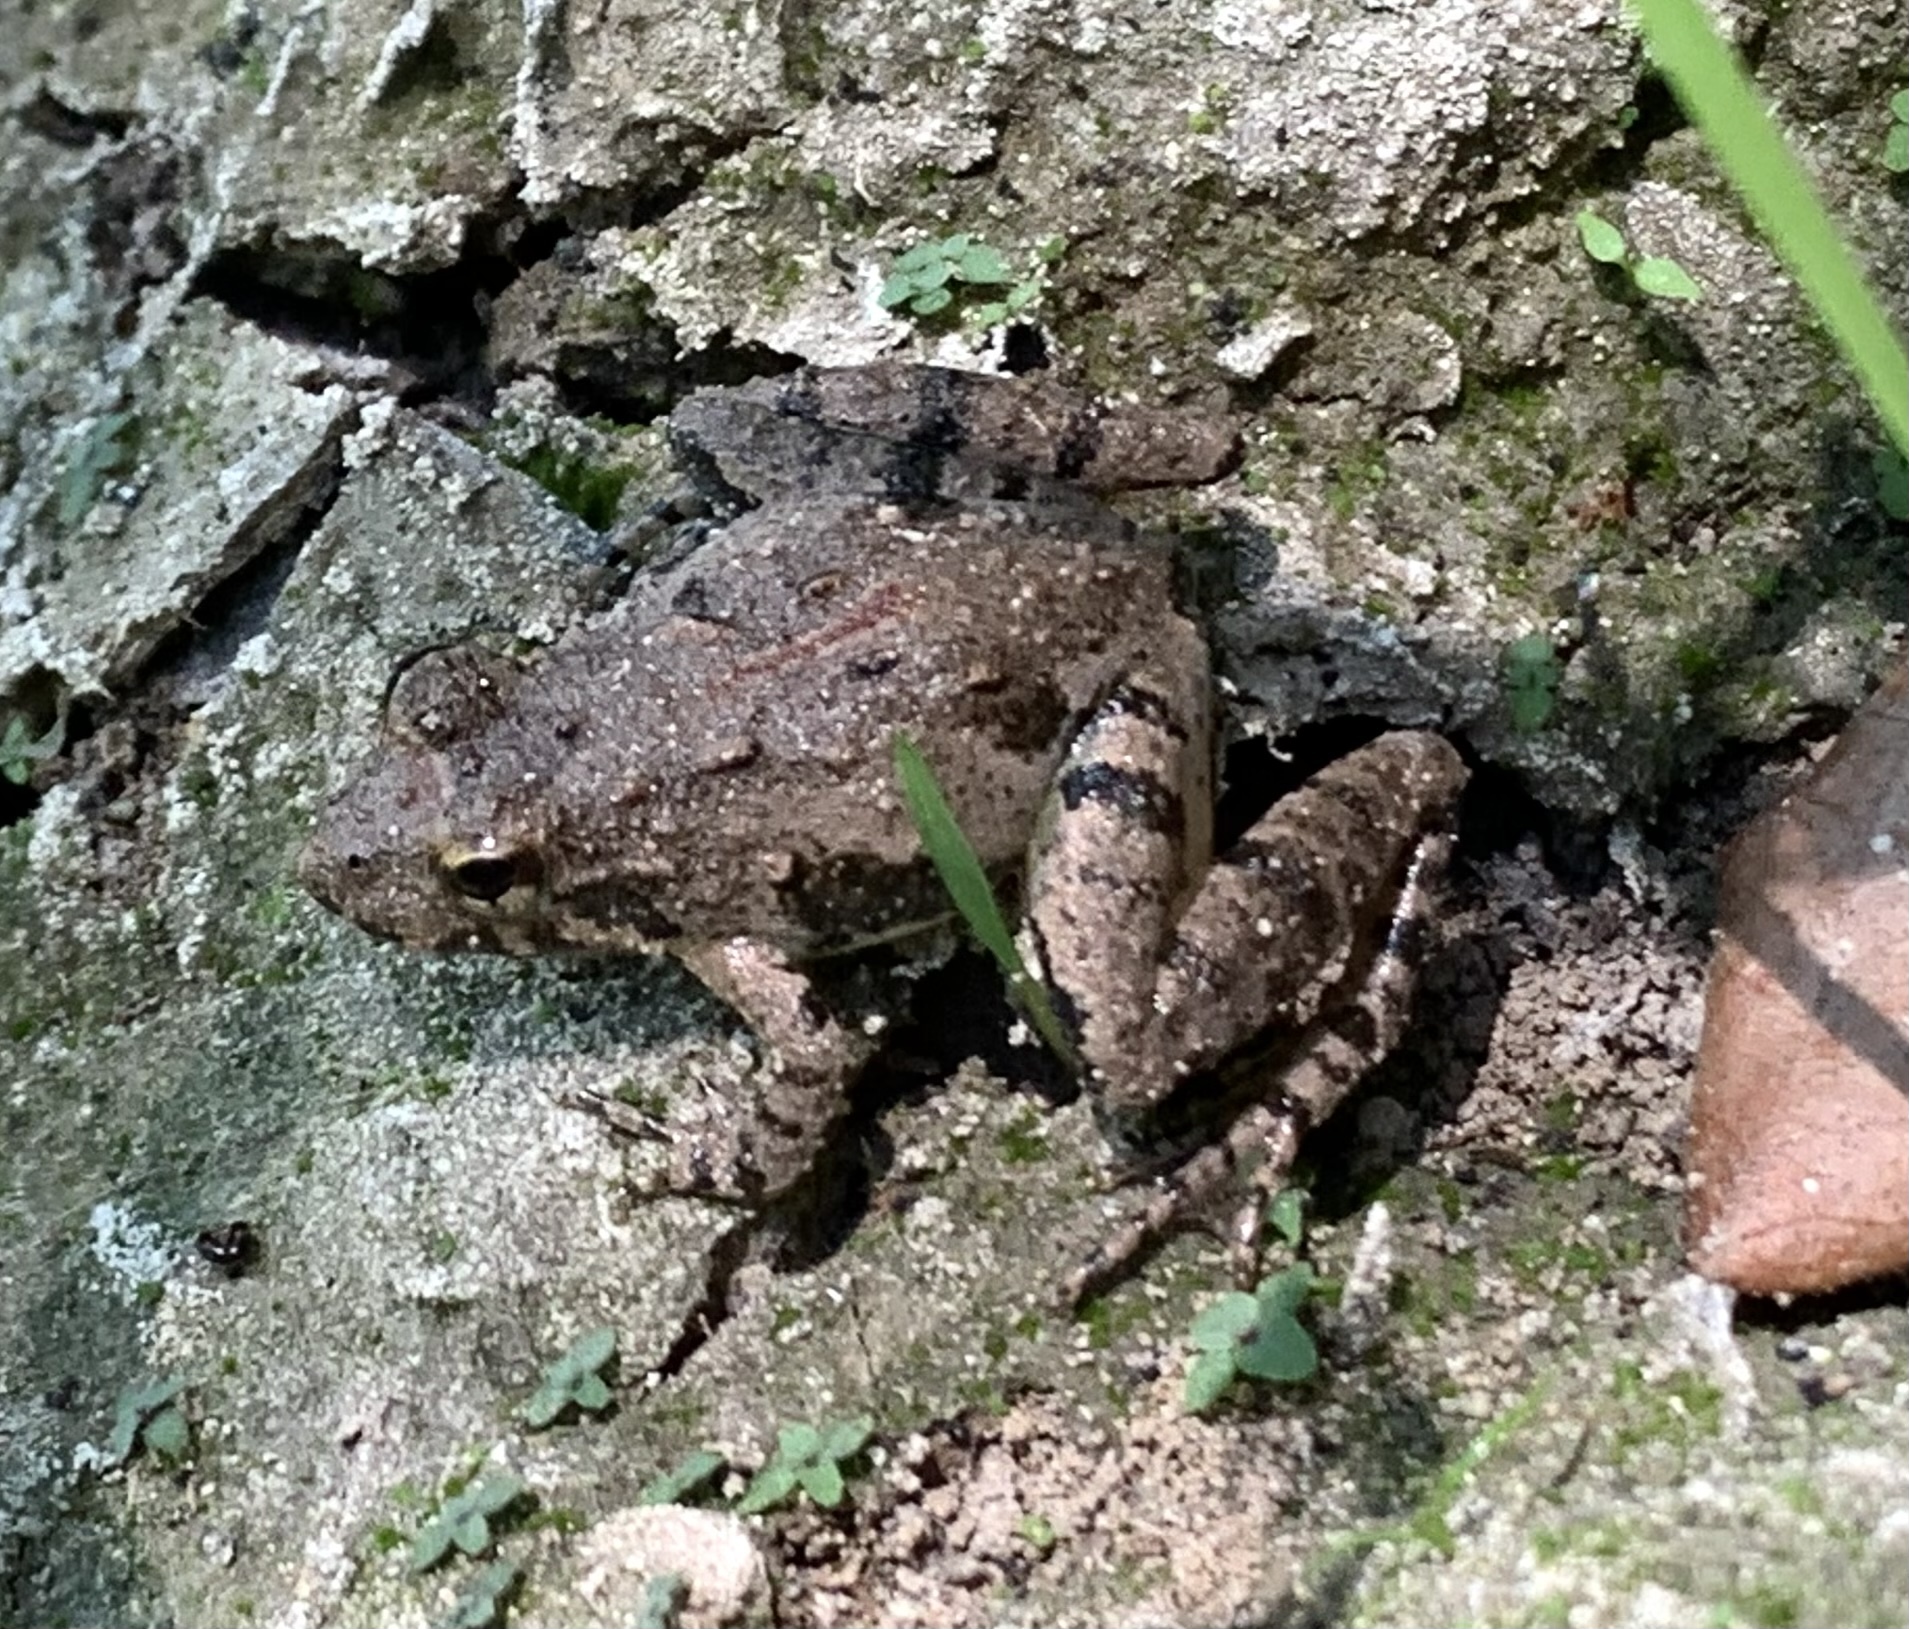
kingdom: Animalia
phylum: Chordata
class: Amphibia
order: Anura
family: Hylidae
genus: Acris
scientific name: Acris blanchardi
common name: Blanchard's cricket frog
